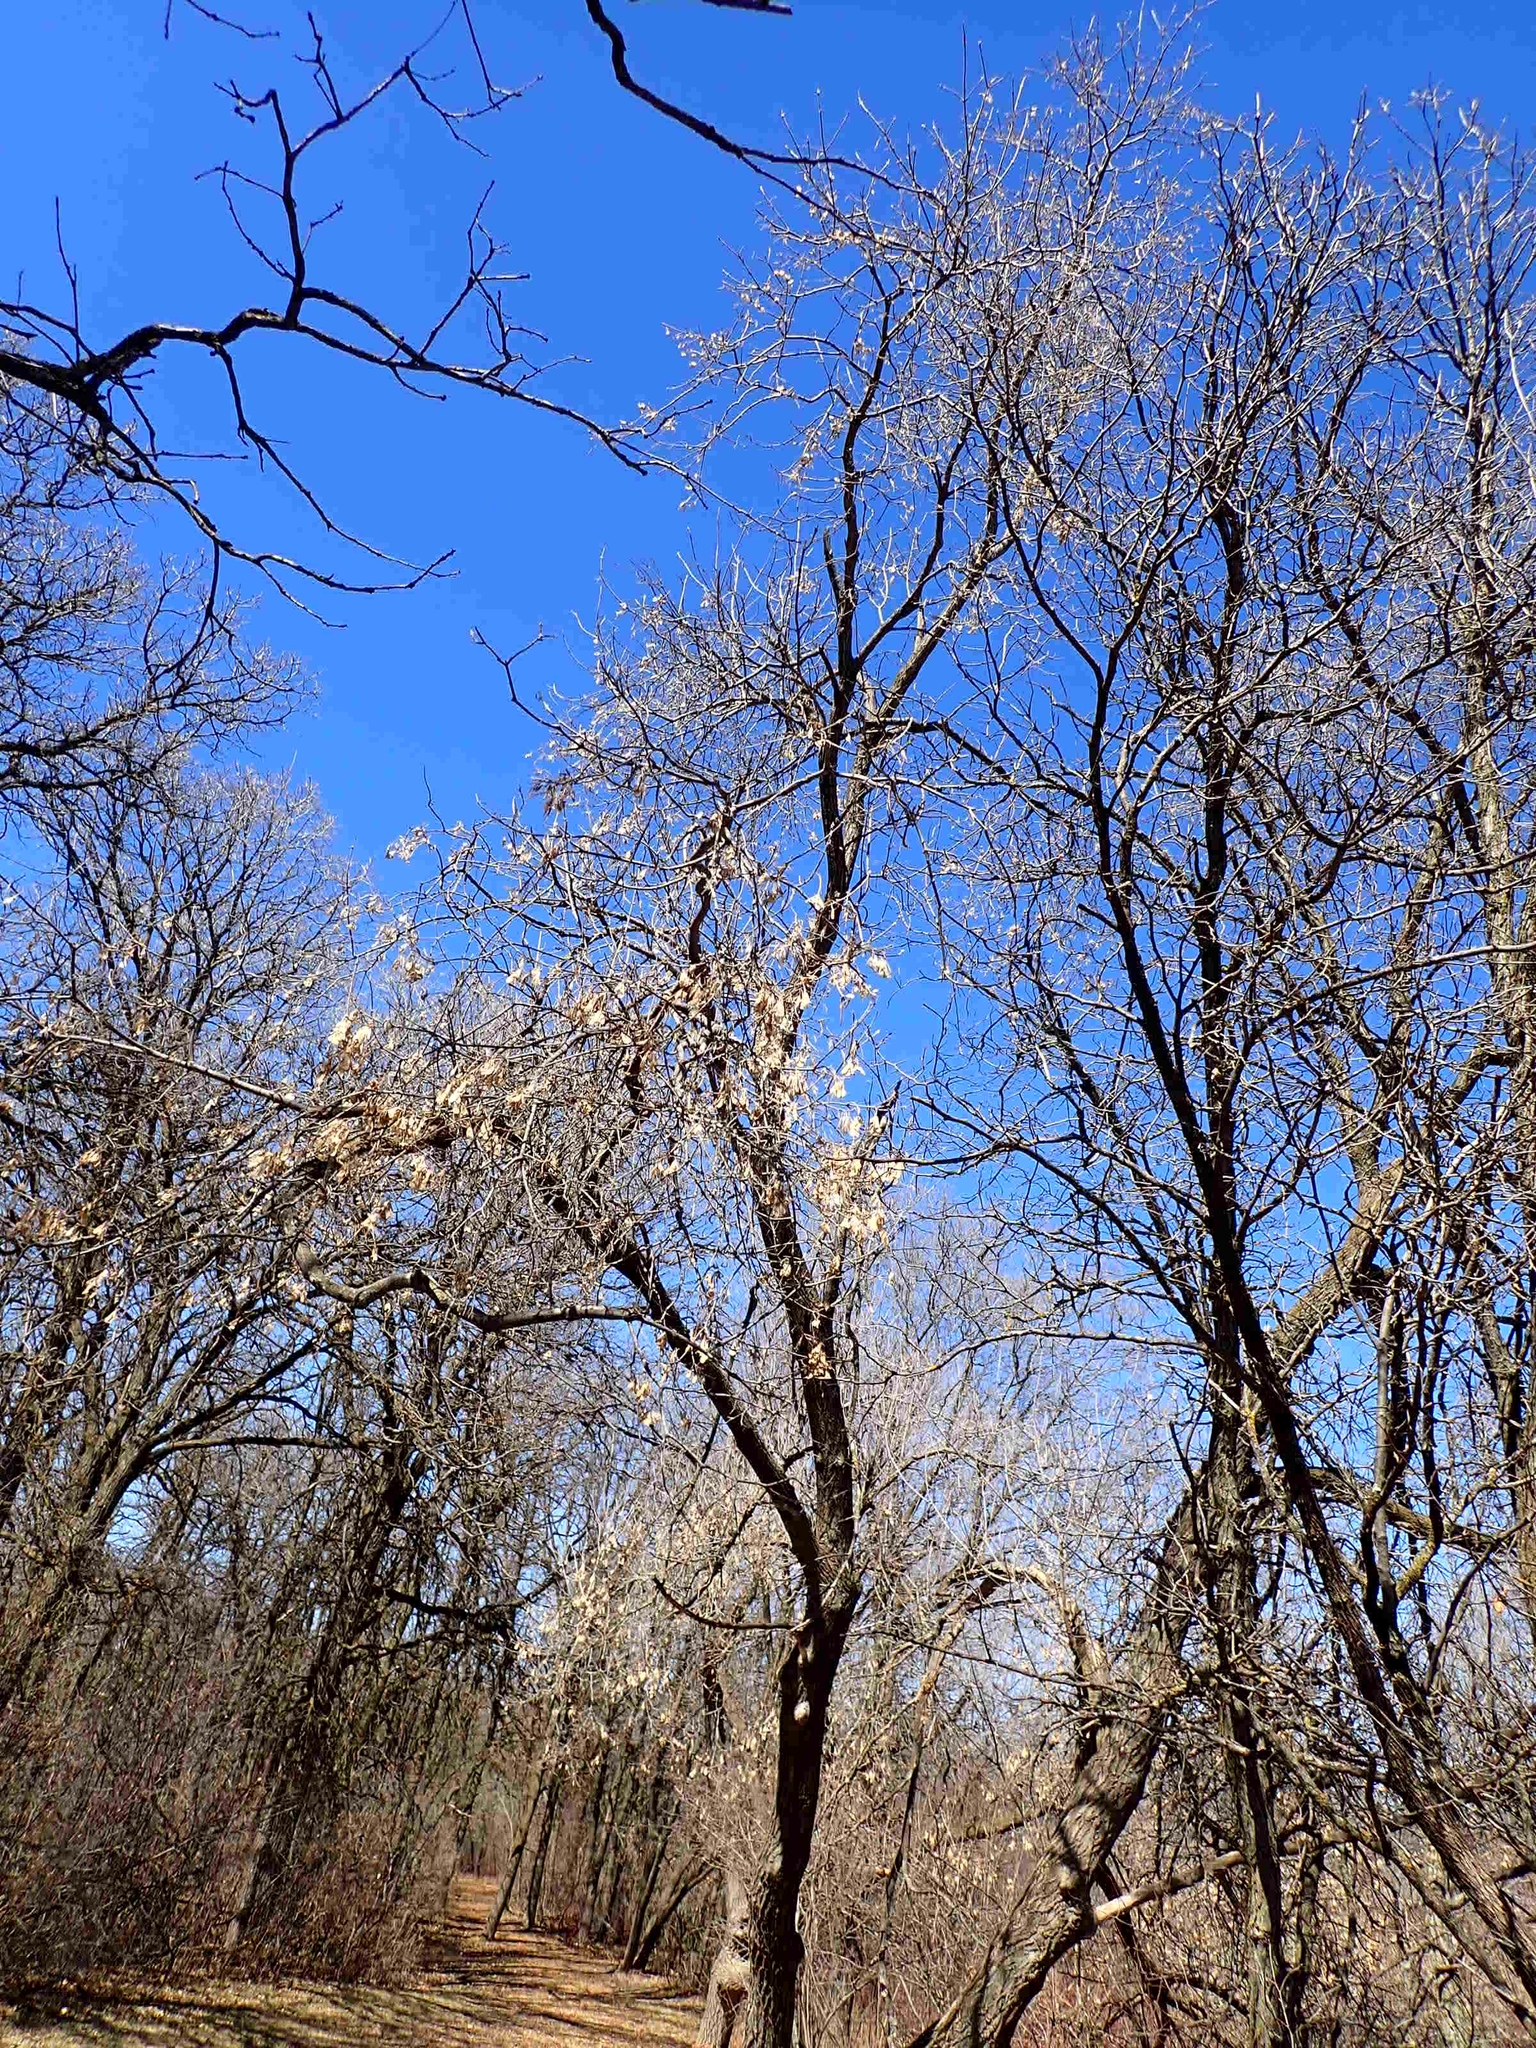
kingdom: Plantae
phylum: Tracheophyta
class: Magnoliopsida
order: Sapindales
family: Sapindaceae
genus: Acer
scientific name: Acer negundo
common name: Ashleaf maple
